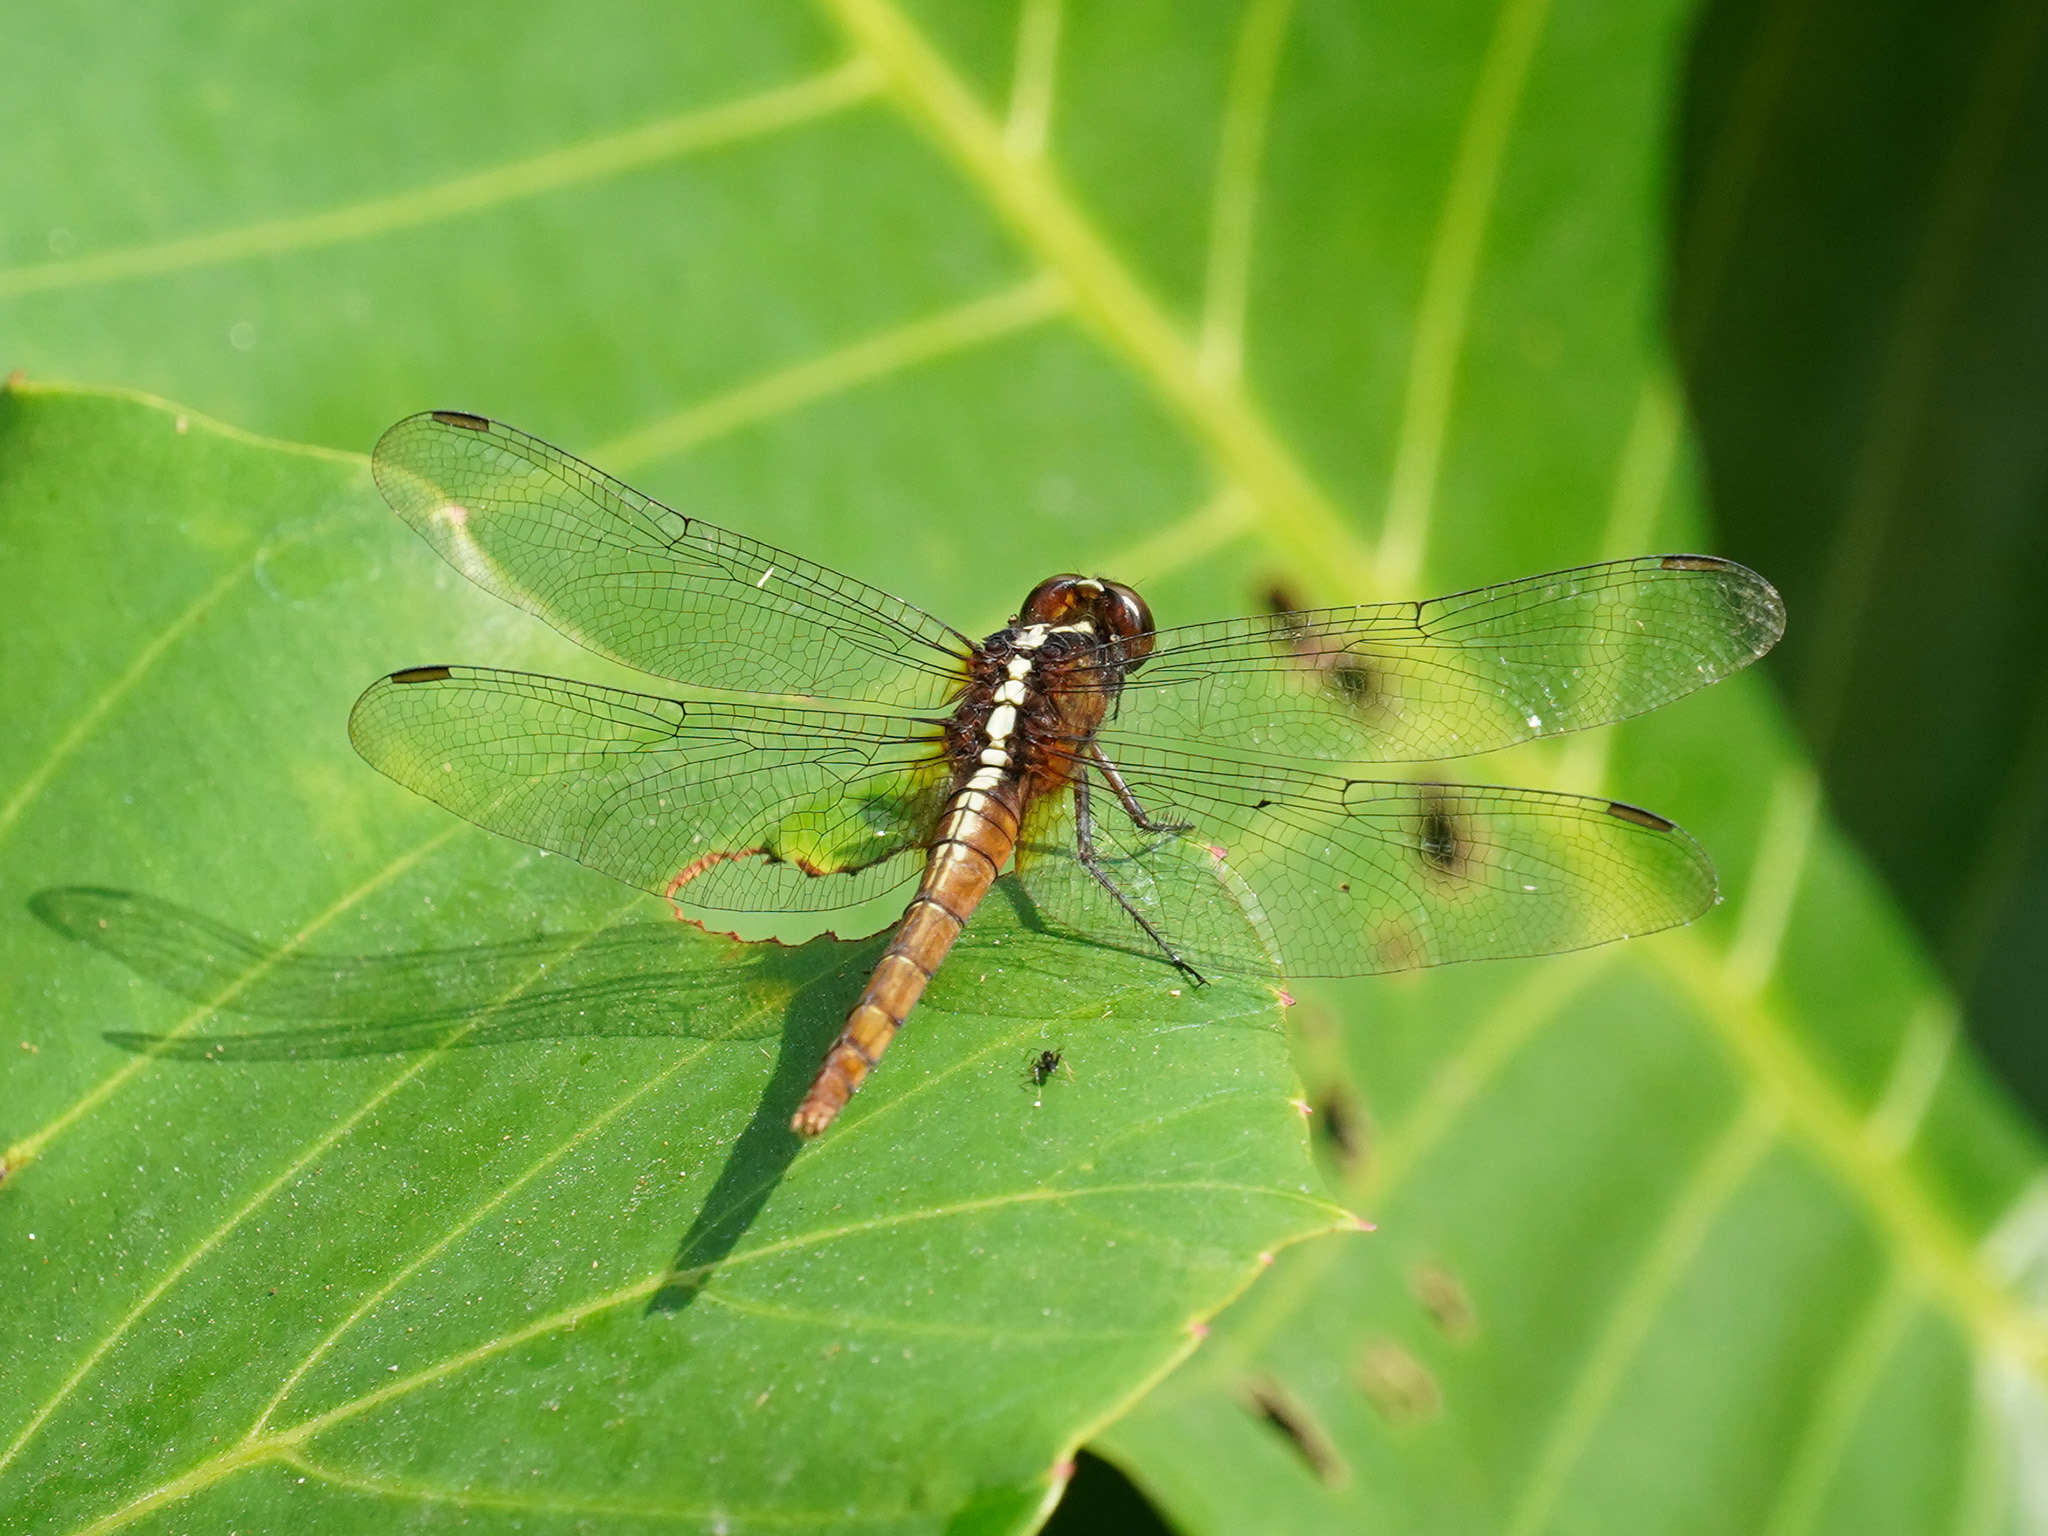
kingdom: Animalia
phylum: Arthropoda
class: Insecta
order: Odonata
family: Libellulidae
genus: Rhodothemis
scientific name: Rhodothemis rufa
